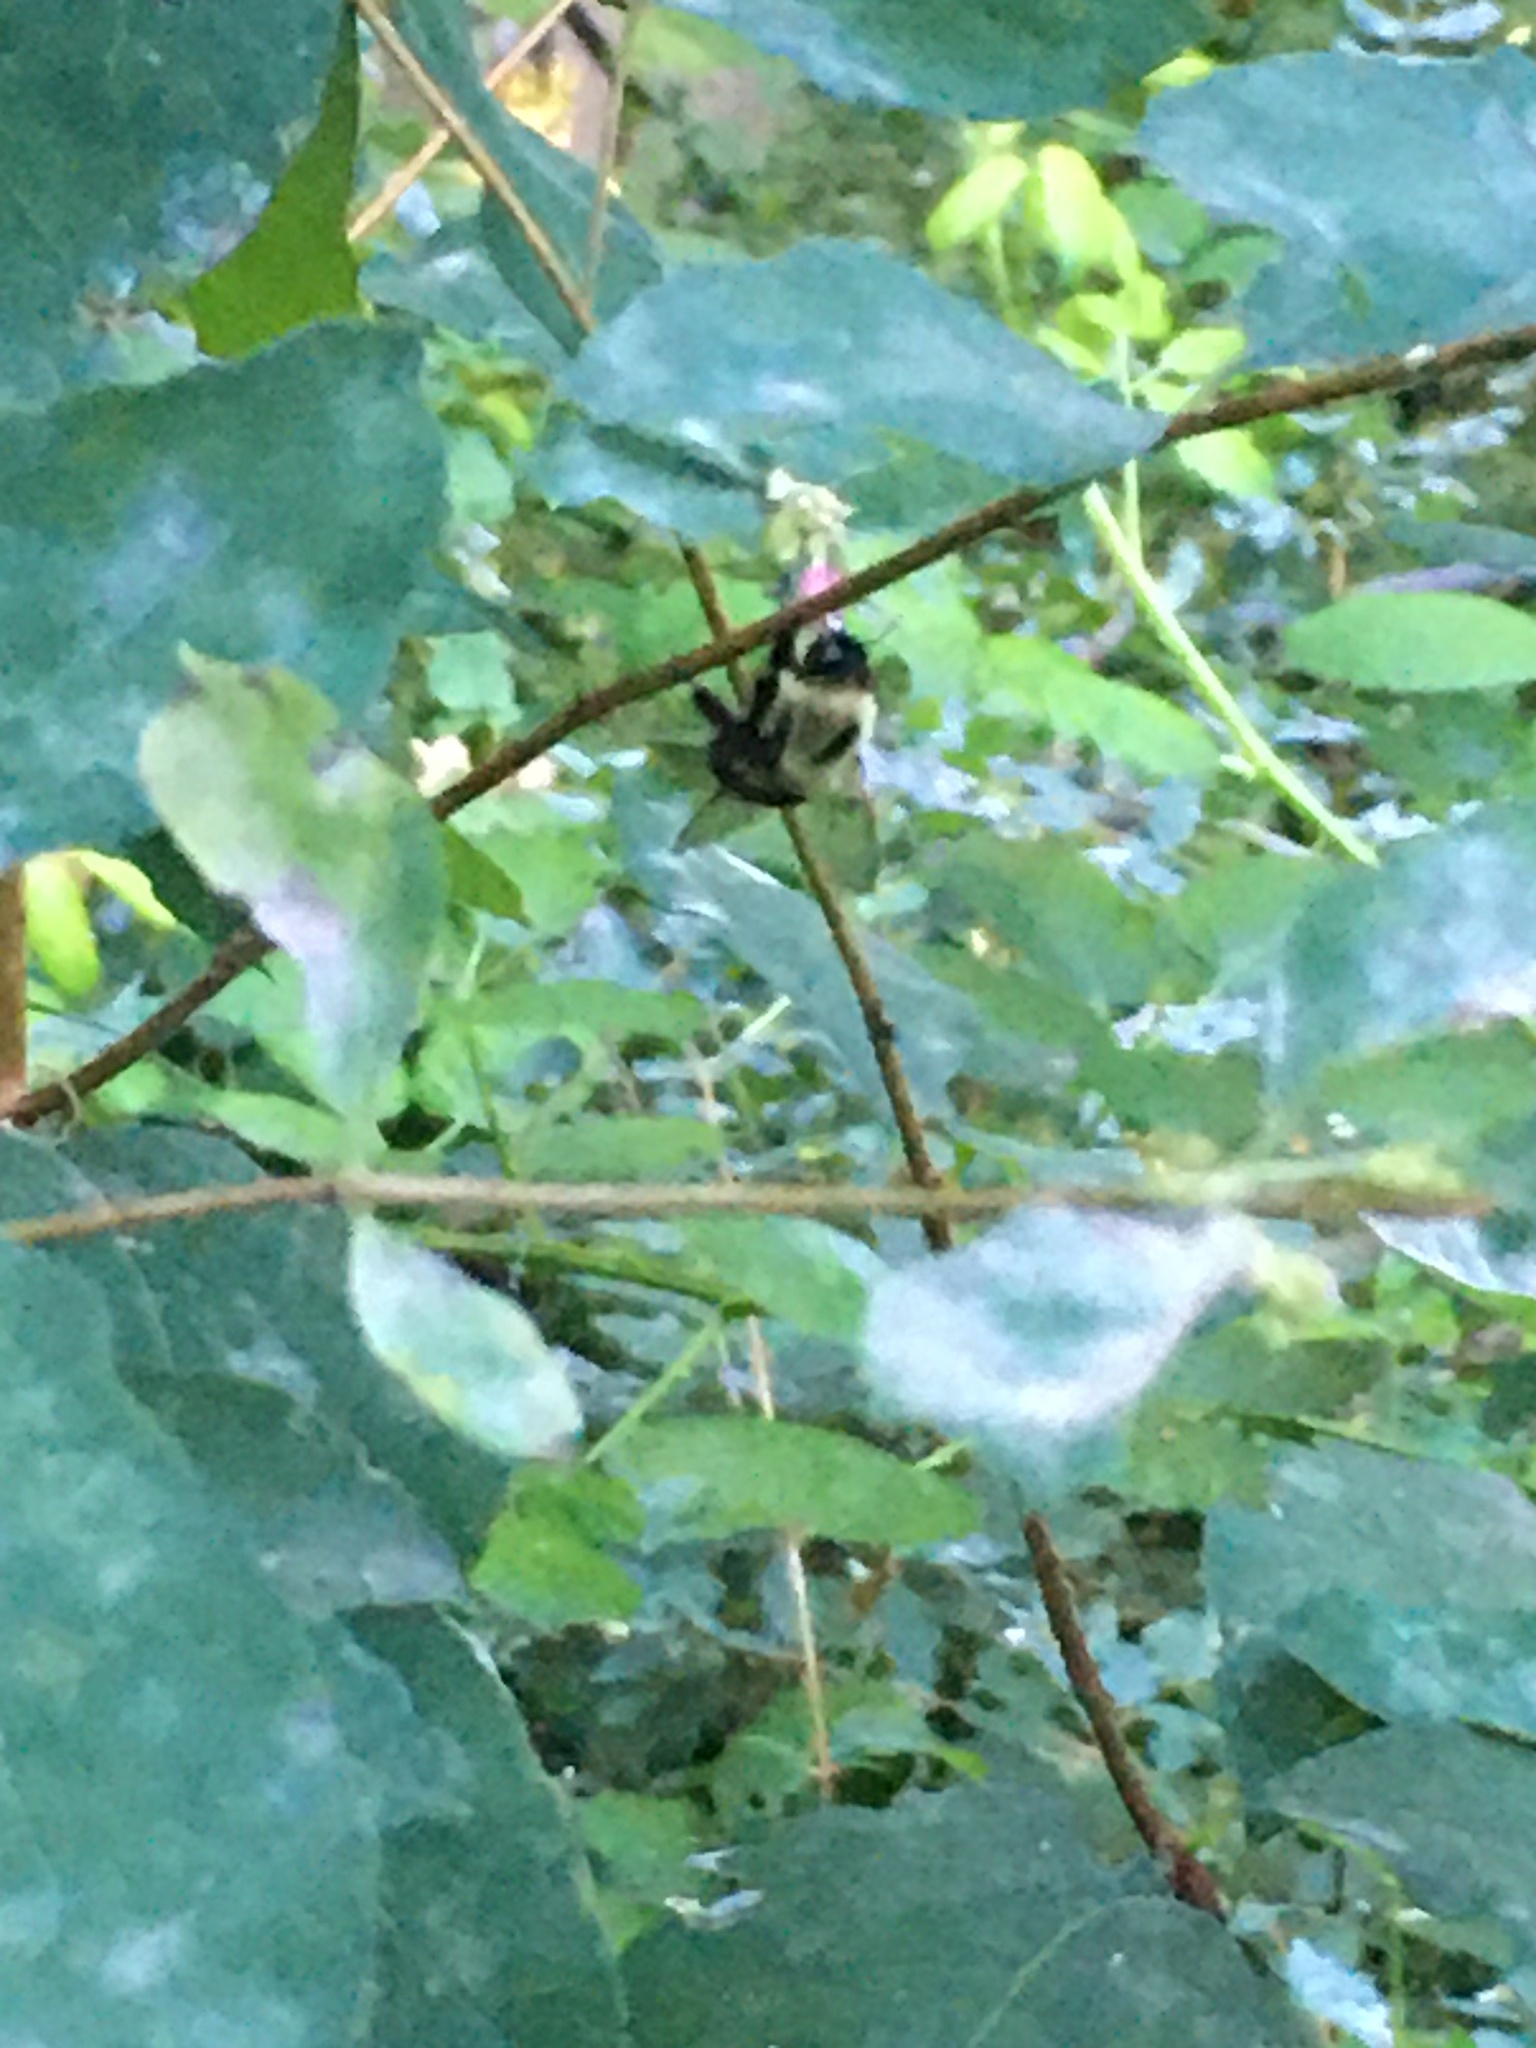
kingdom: Animalia
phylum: Arthropoda
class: Insecta
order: Hymenoptera
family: Apidae
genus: Bombus
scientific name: Bombus impatiens
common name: Common eastern bumble bee
